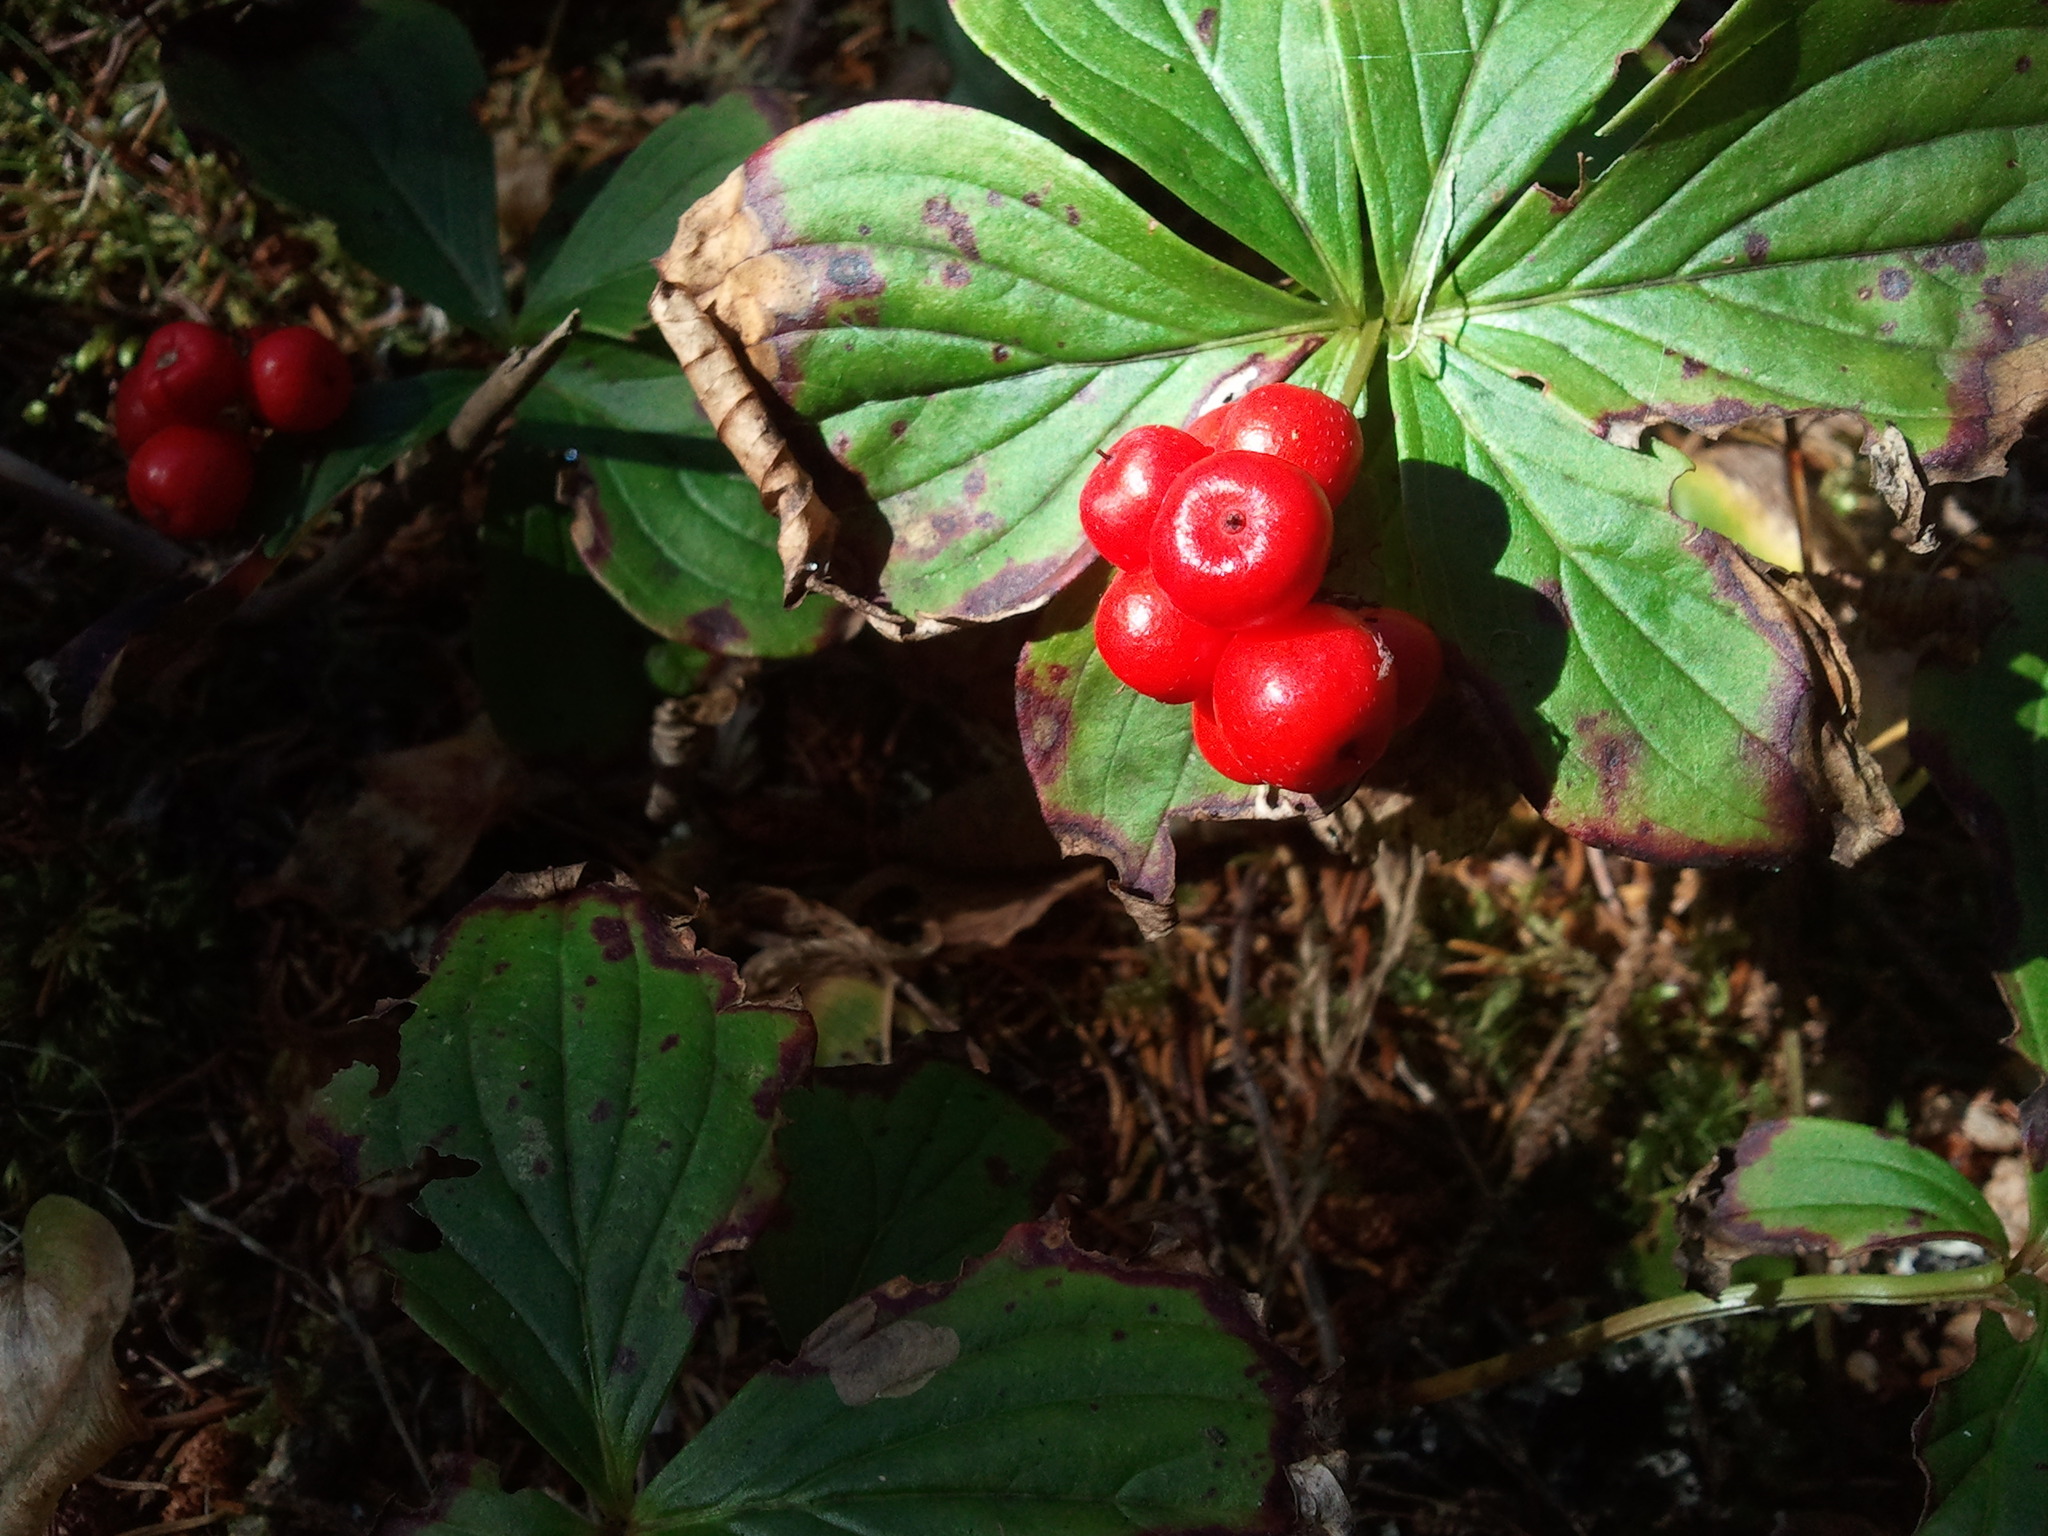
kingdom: Plantae
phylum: Tracheophyta
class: Magnoliopsida
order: Cornales
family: Cornaceae
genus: Cornus
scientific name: Cornus canadensis
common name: Creeping dogwood
